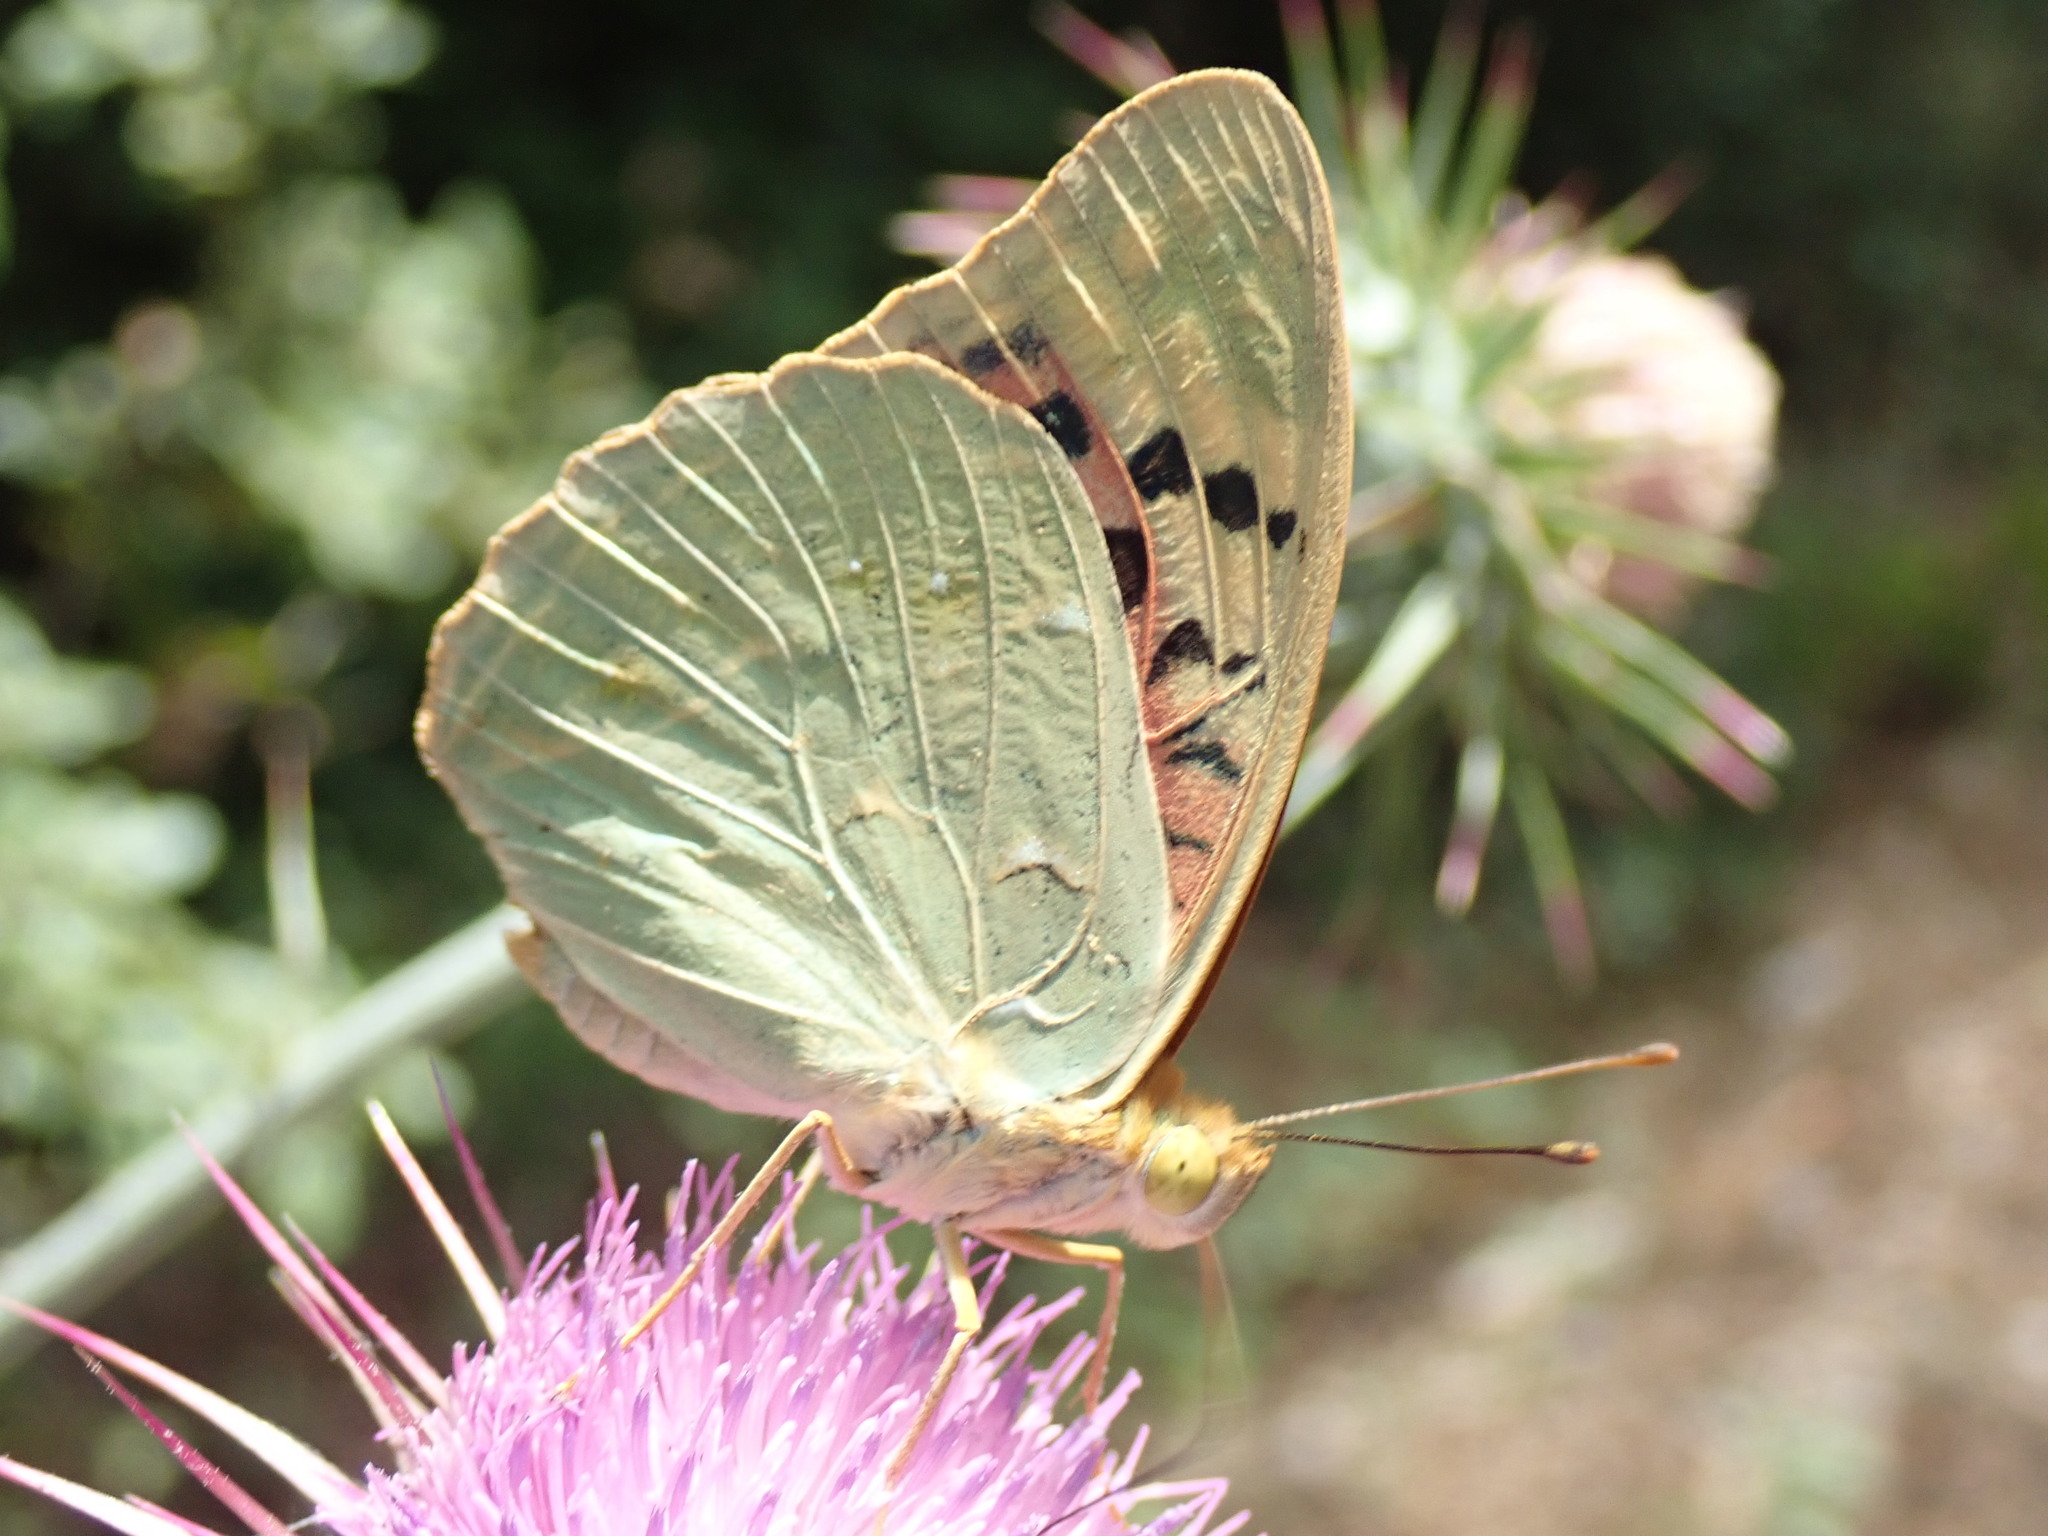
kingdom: Animalia
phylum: Arthropoda
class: Insecta
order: Lepidoptera
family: Nymphalidae
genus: Damora
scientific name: Damora pandora
